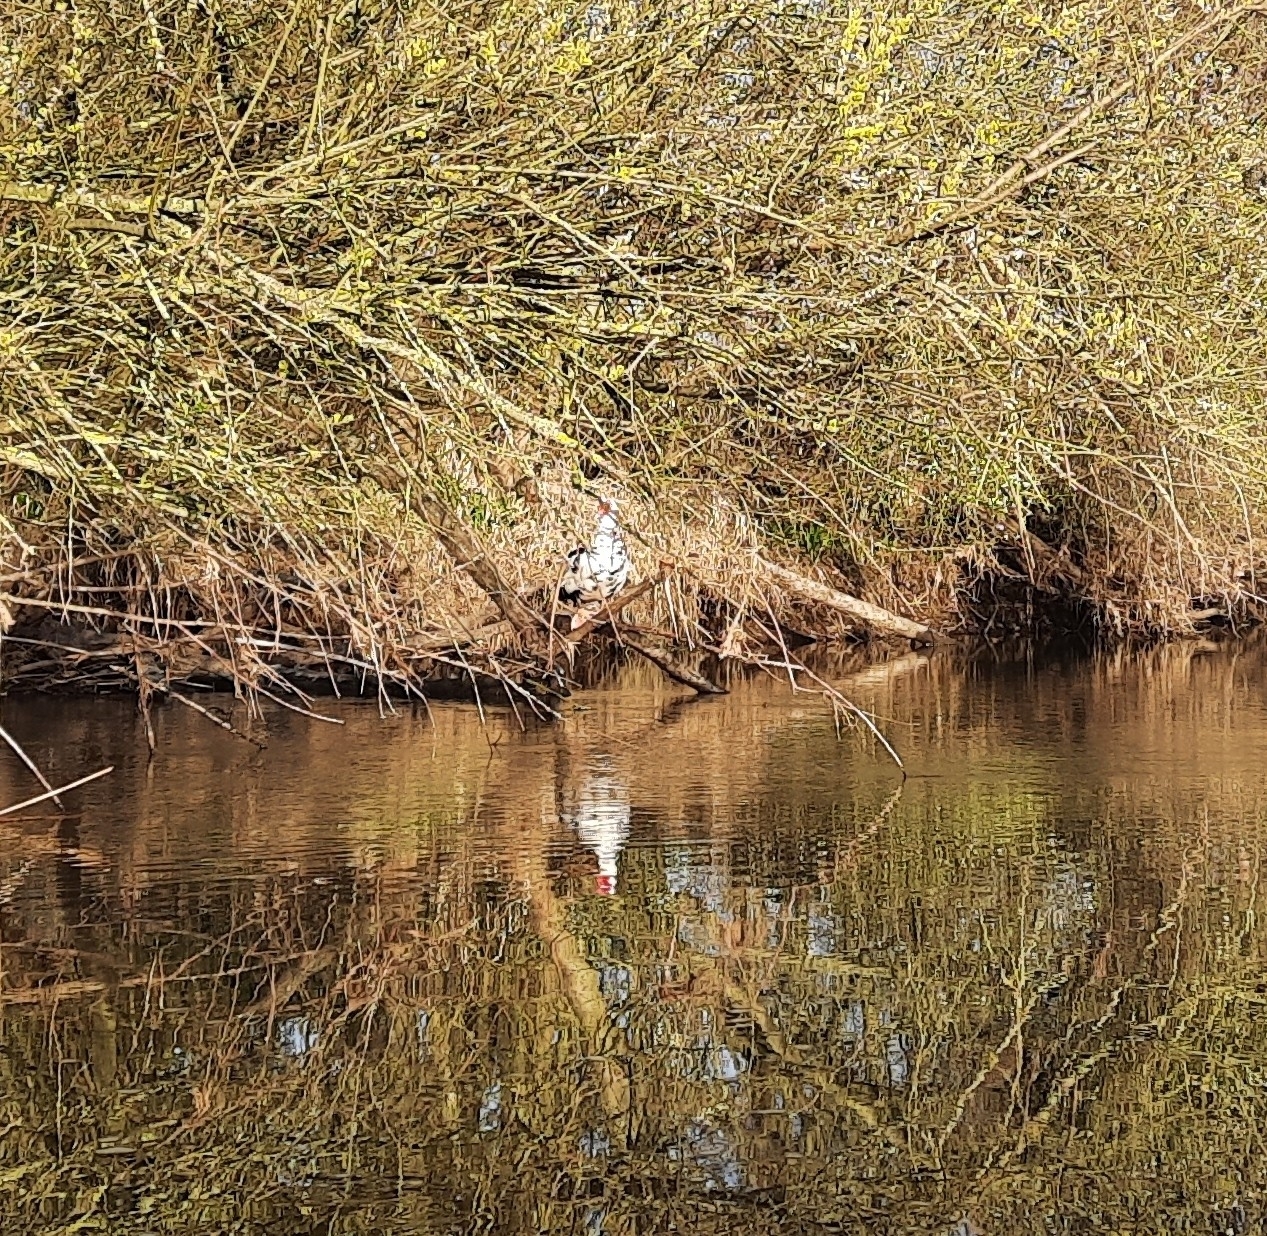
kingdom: Animalia
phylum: Chordata
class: Aves
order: Anseriformes
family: Anatidae
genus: Cairina
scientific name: Cairina moschata
